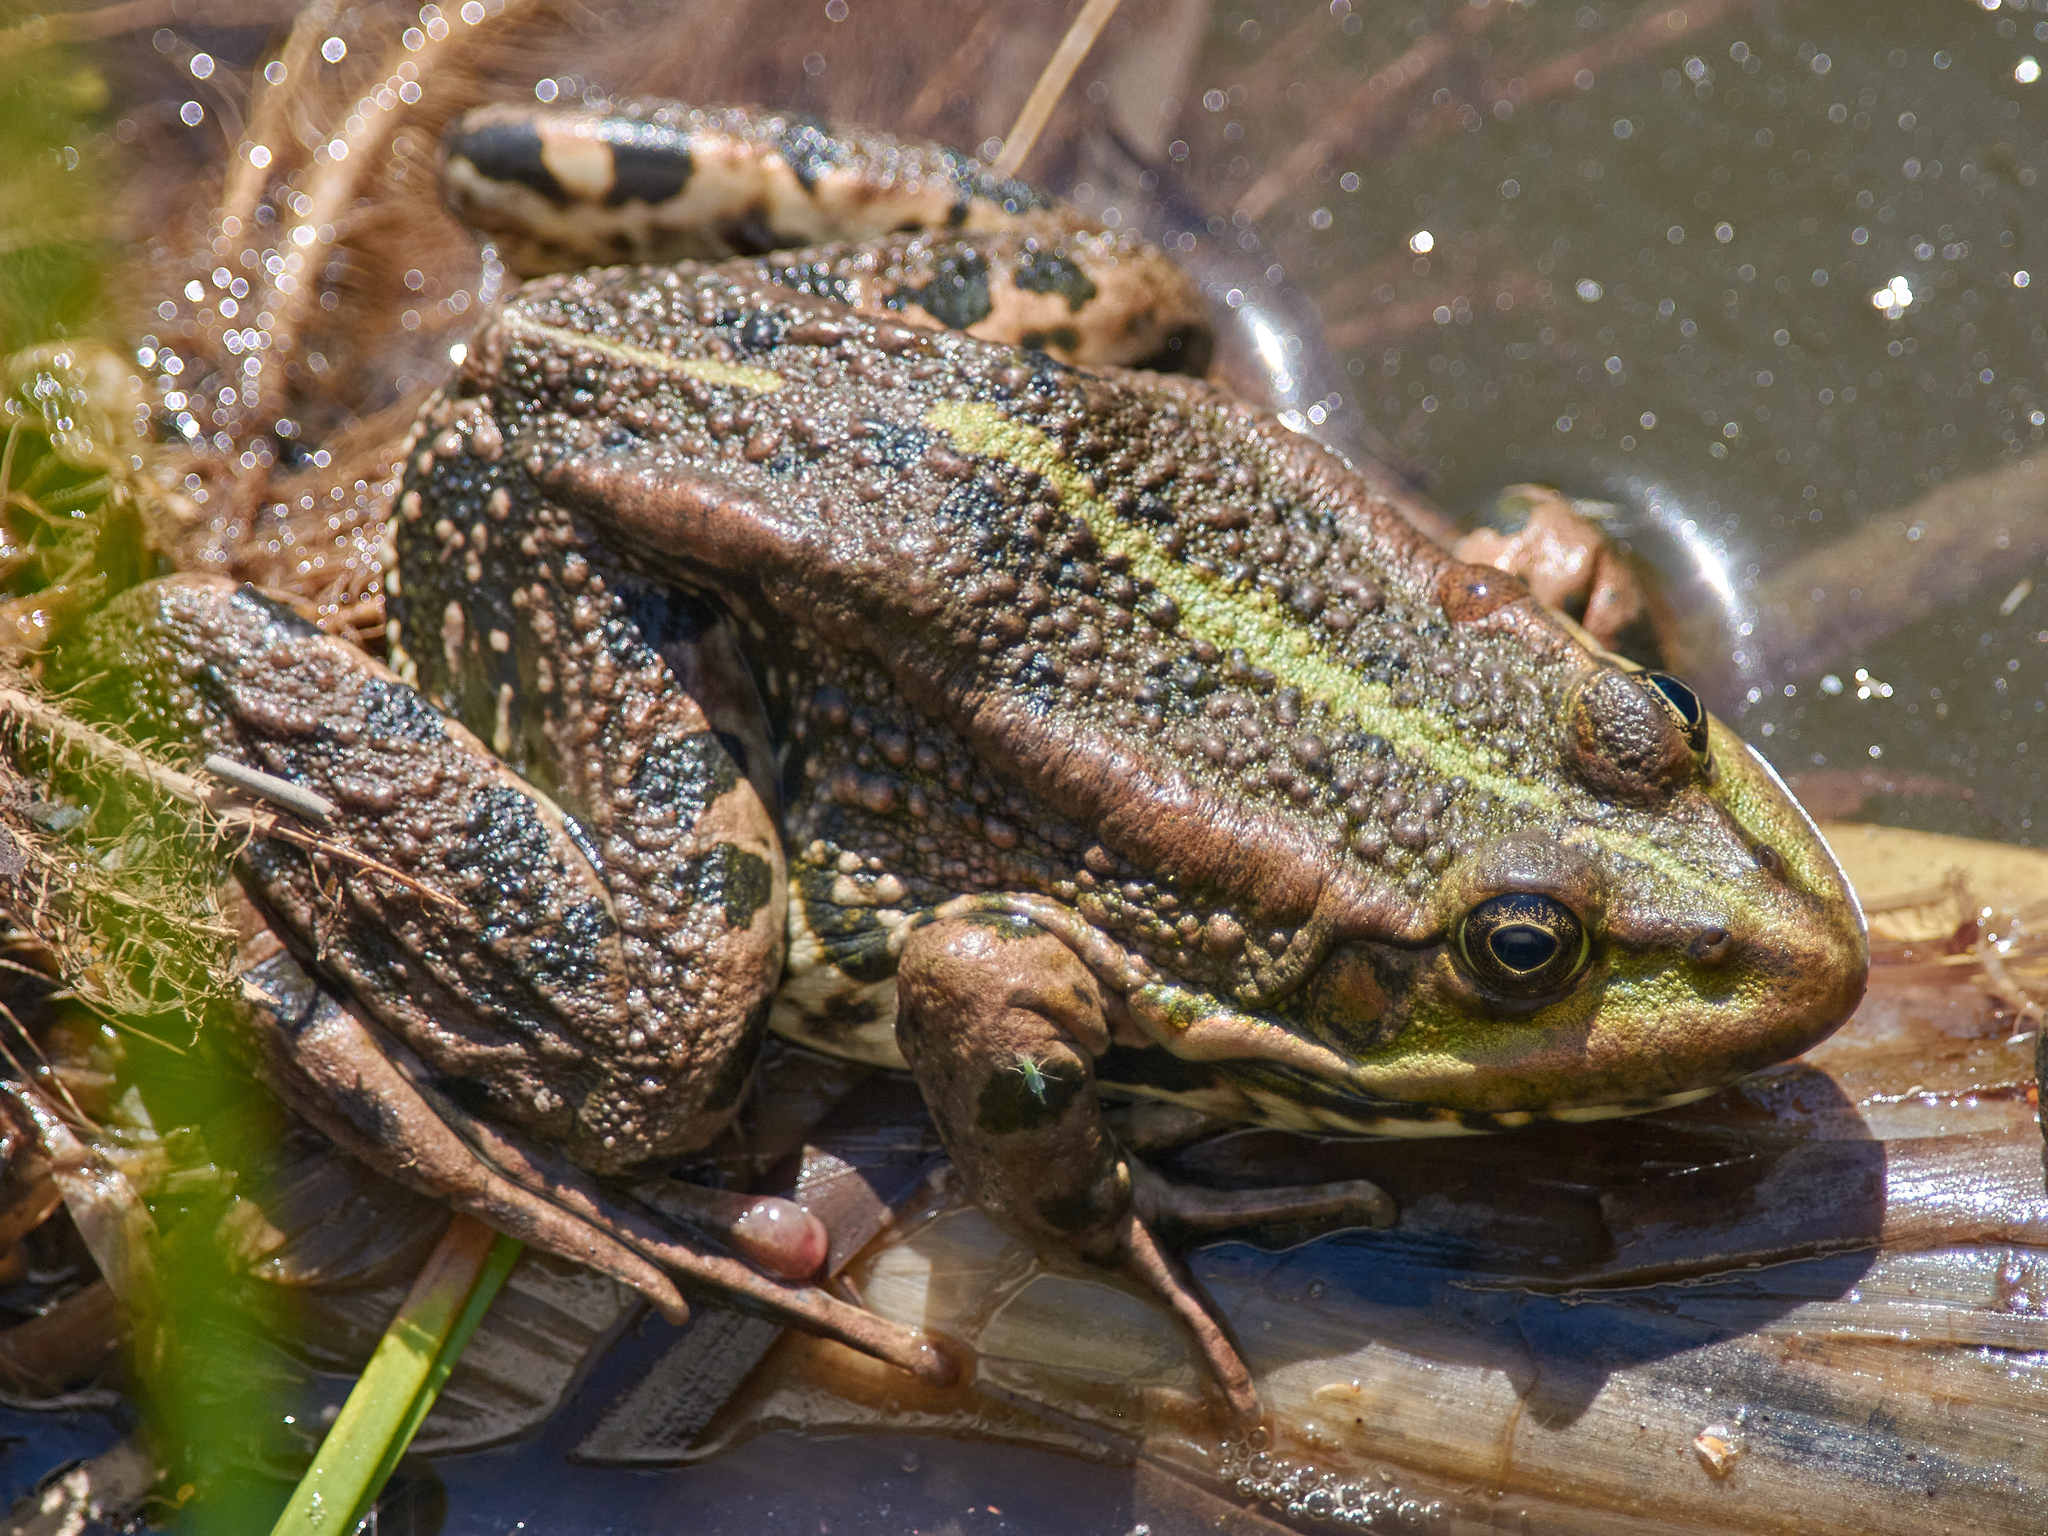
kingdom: Animalia
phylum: Chordata
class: Amphibia
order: Anura
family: Ranidae
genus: Pelophylax
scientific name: Pelophylax ridibundus
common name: Marsh frog
